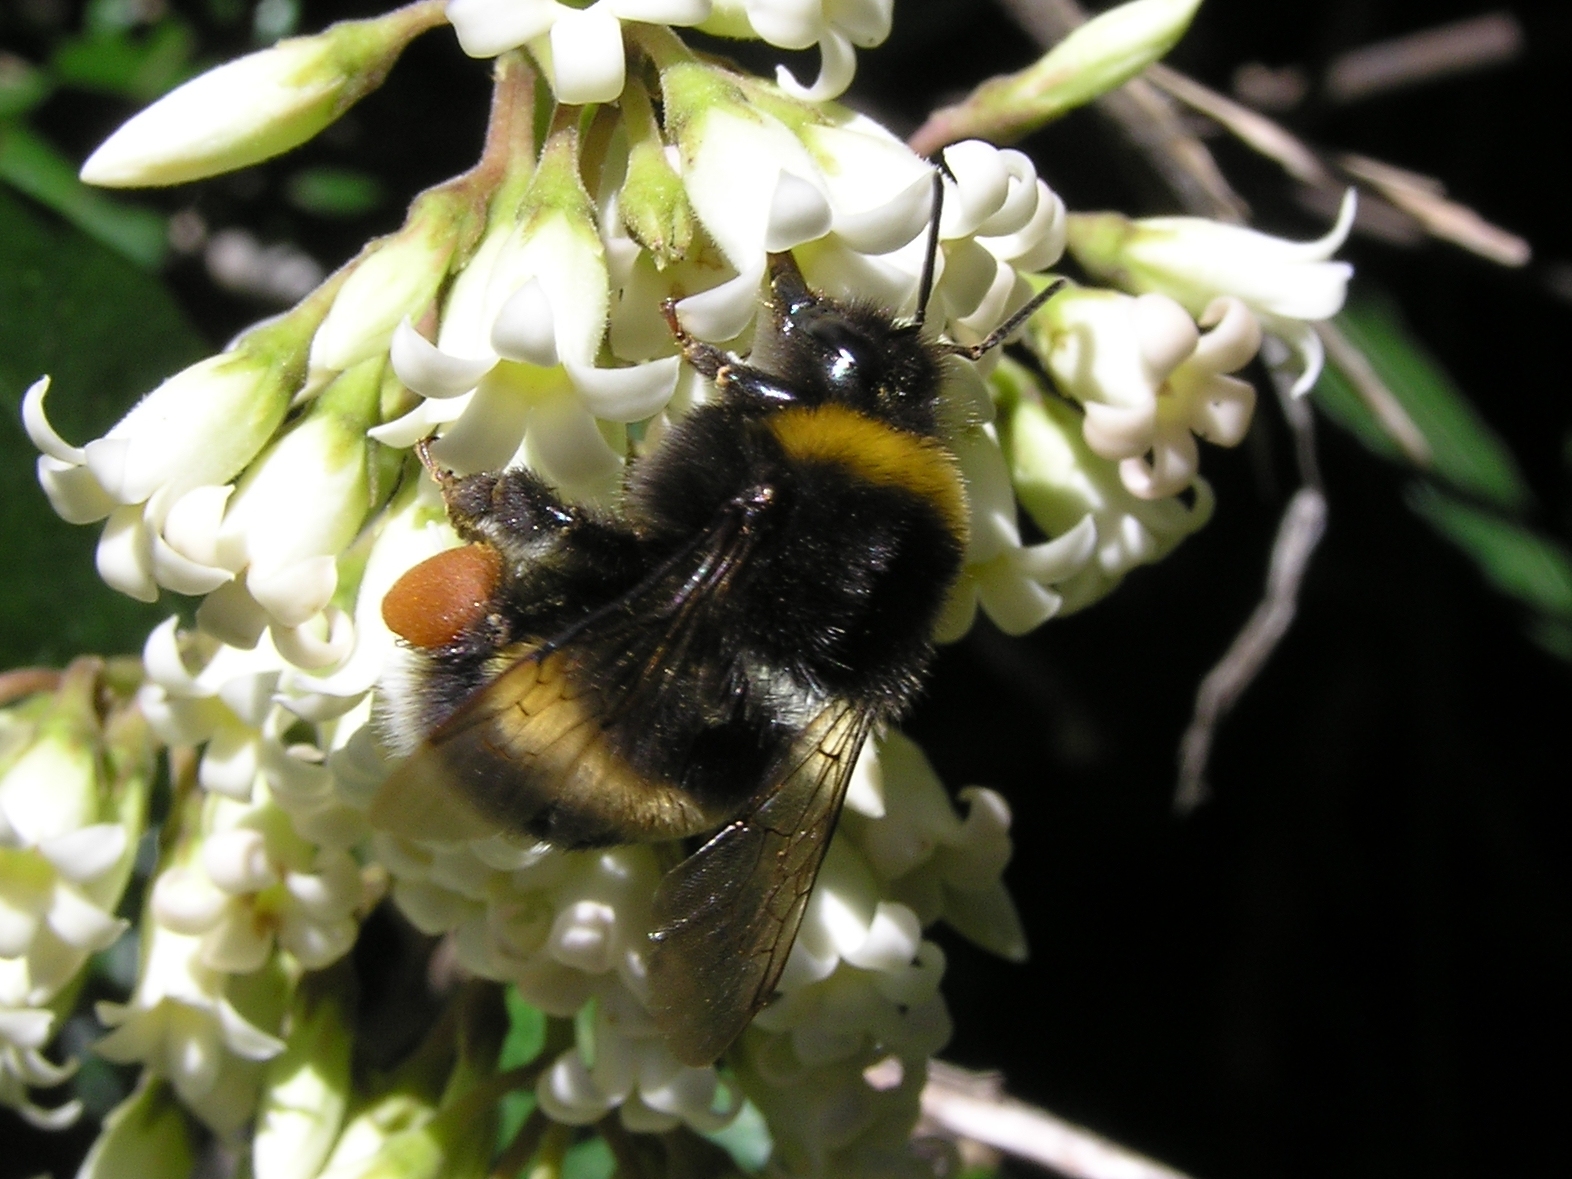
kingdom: Animalia
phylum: Arthropoda
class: Insecta
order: Hymenoptera
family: Apidae
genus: Bombus
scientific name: Bombus terrestris
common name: Buff-tailed bumblebee
